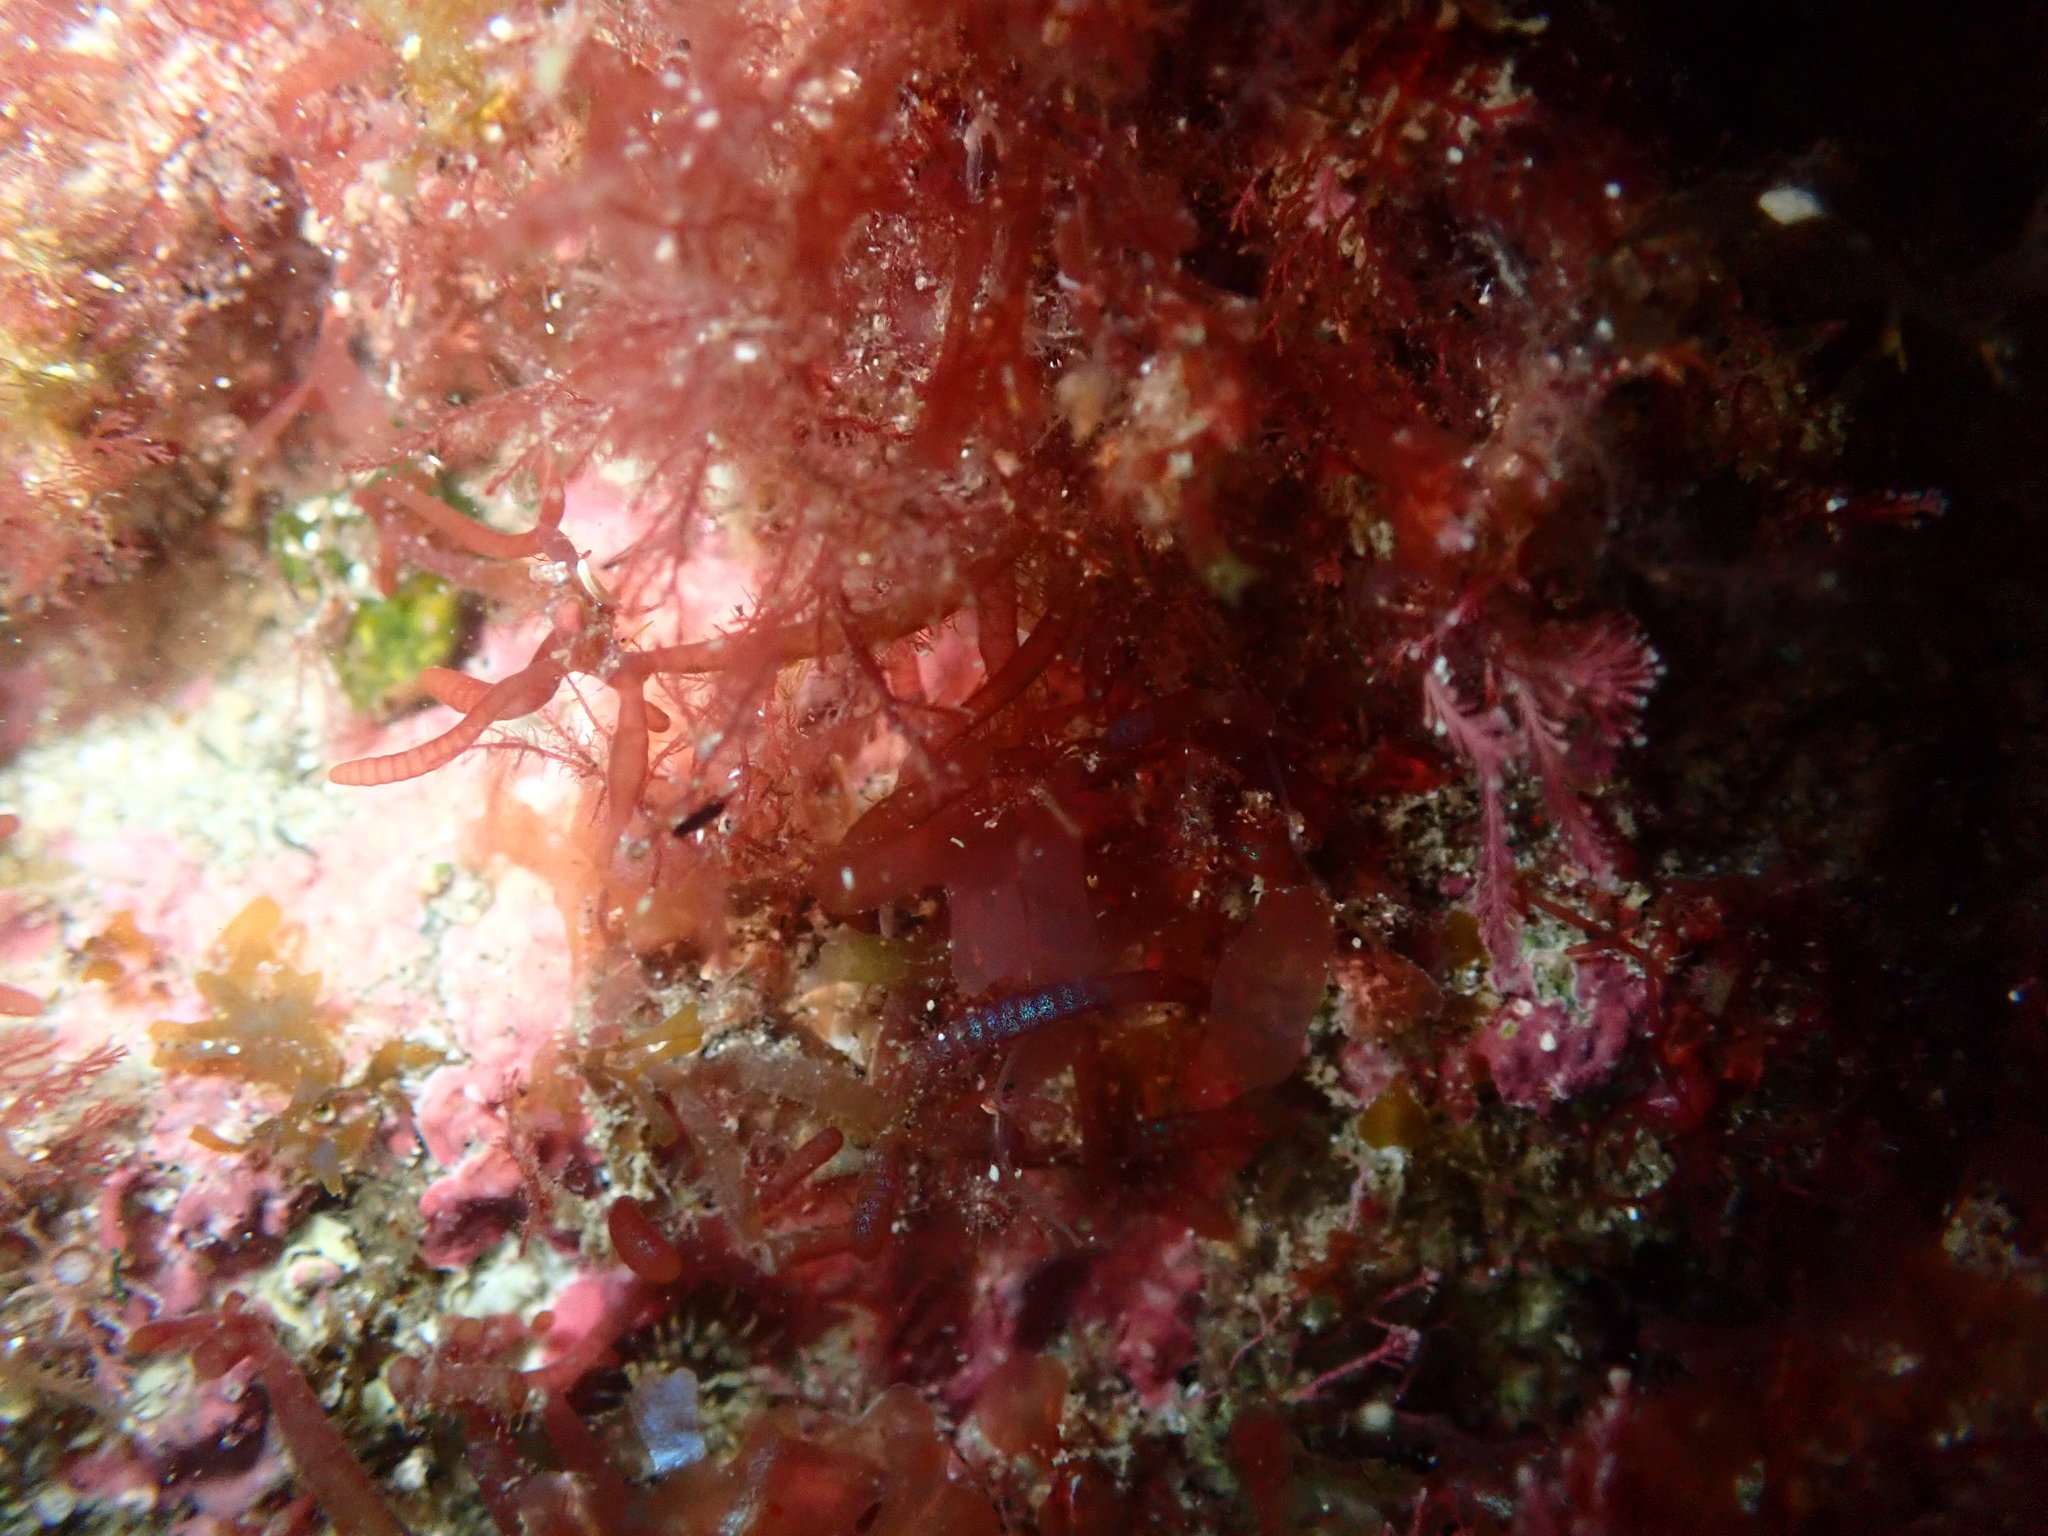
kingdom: Plantae
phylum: Rhodophyta
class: Florideophyceae
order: Rhodymeniales
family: Champiaceae
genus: Champia
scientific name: Champia laingii
